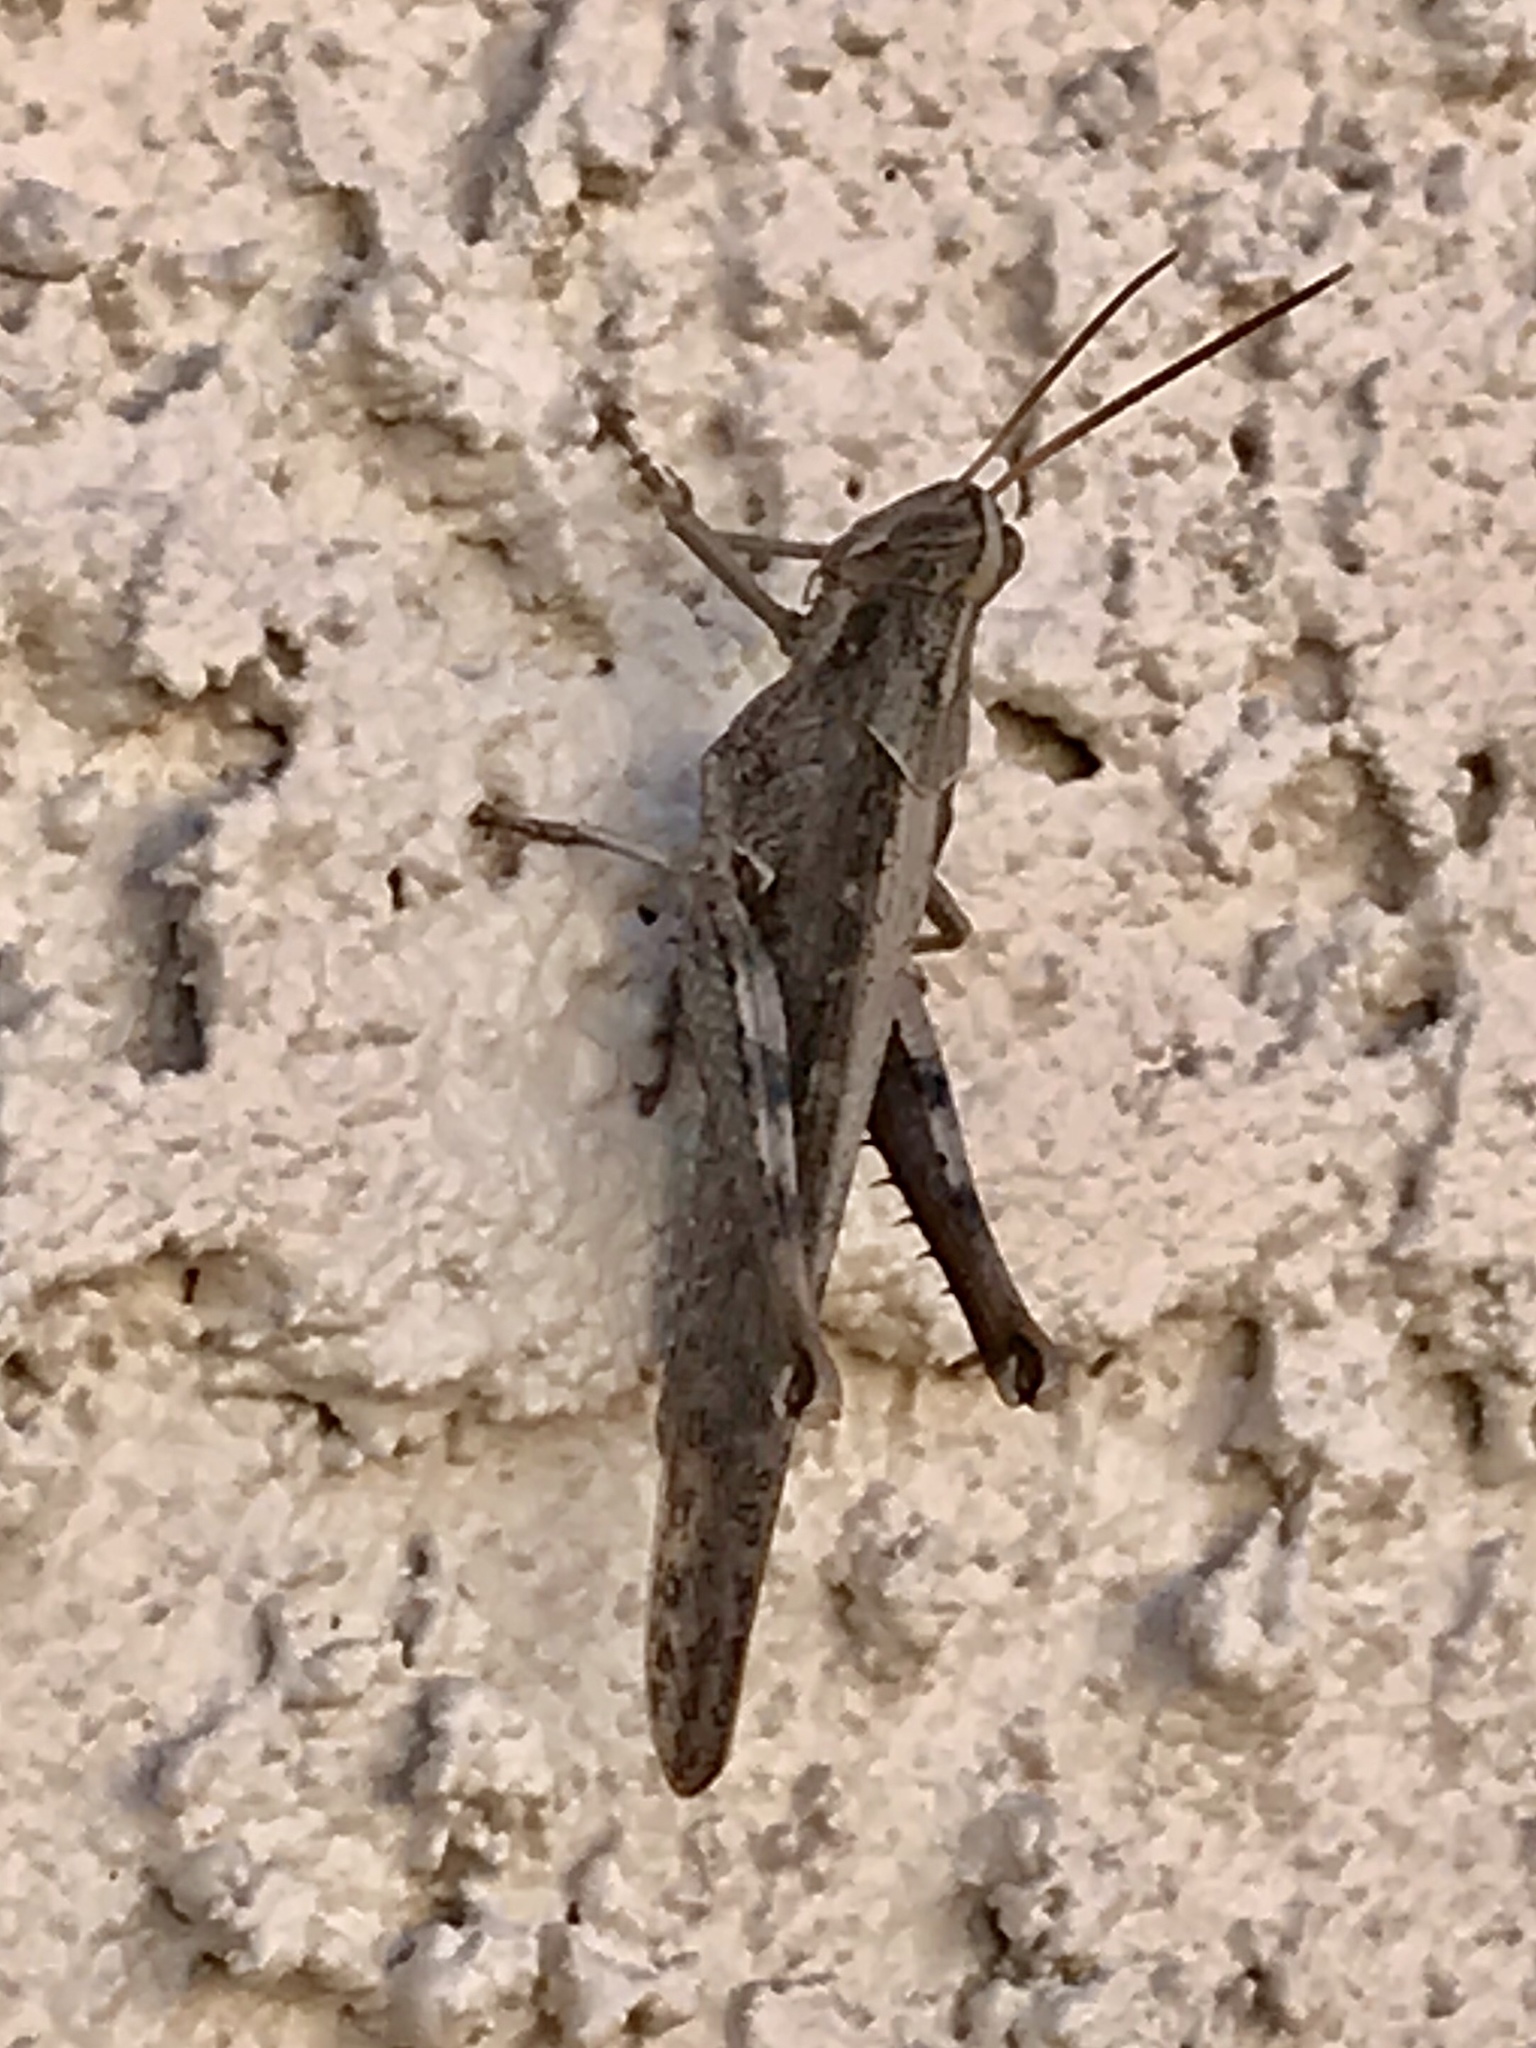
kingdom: Animalia
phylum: Arthropoda
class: Insecta
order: Orthoptera
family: Acrididae
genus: Schistocerca
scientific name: Schistocerca nitens
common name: Vagrant grasshopper
